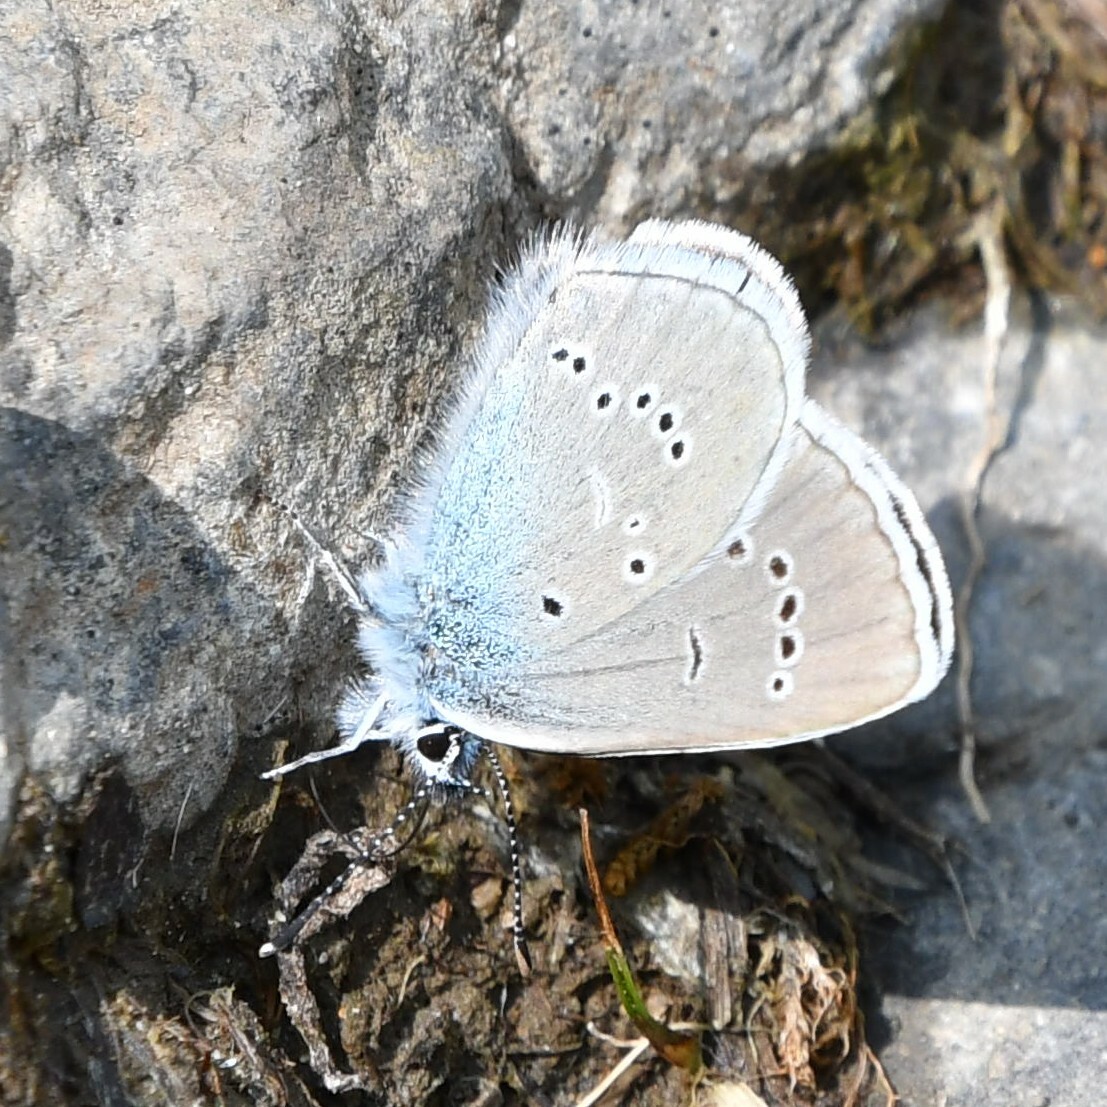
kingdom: Animalia
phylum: Arthropoda
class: Insecta
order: Lepidoptera
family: Lycaenidae
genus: Cyaniris
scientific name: Cyaniris semiargus
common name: Mazarine blue
